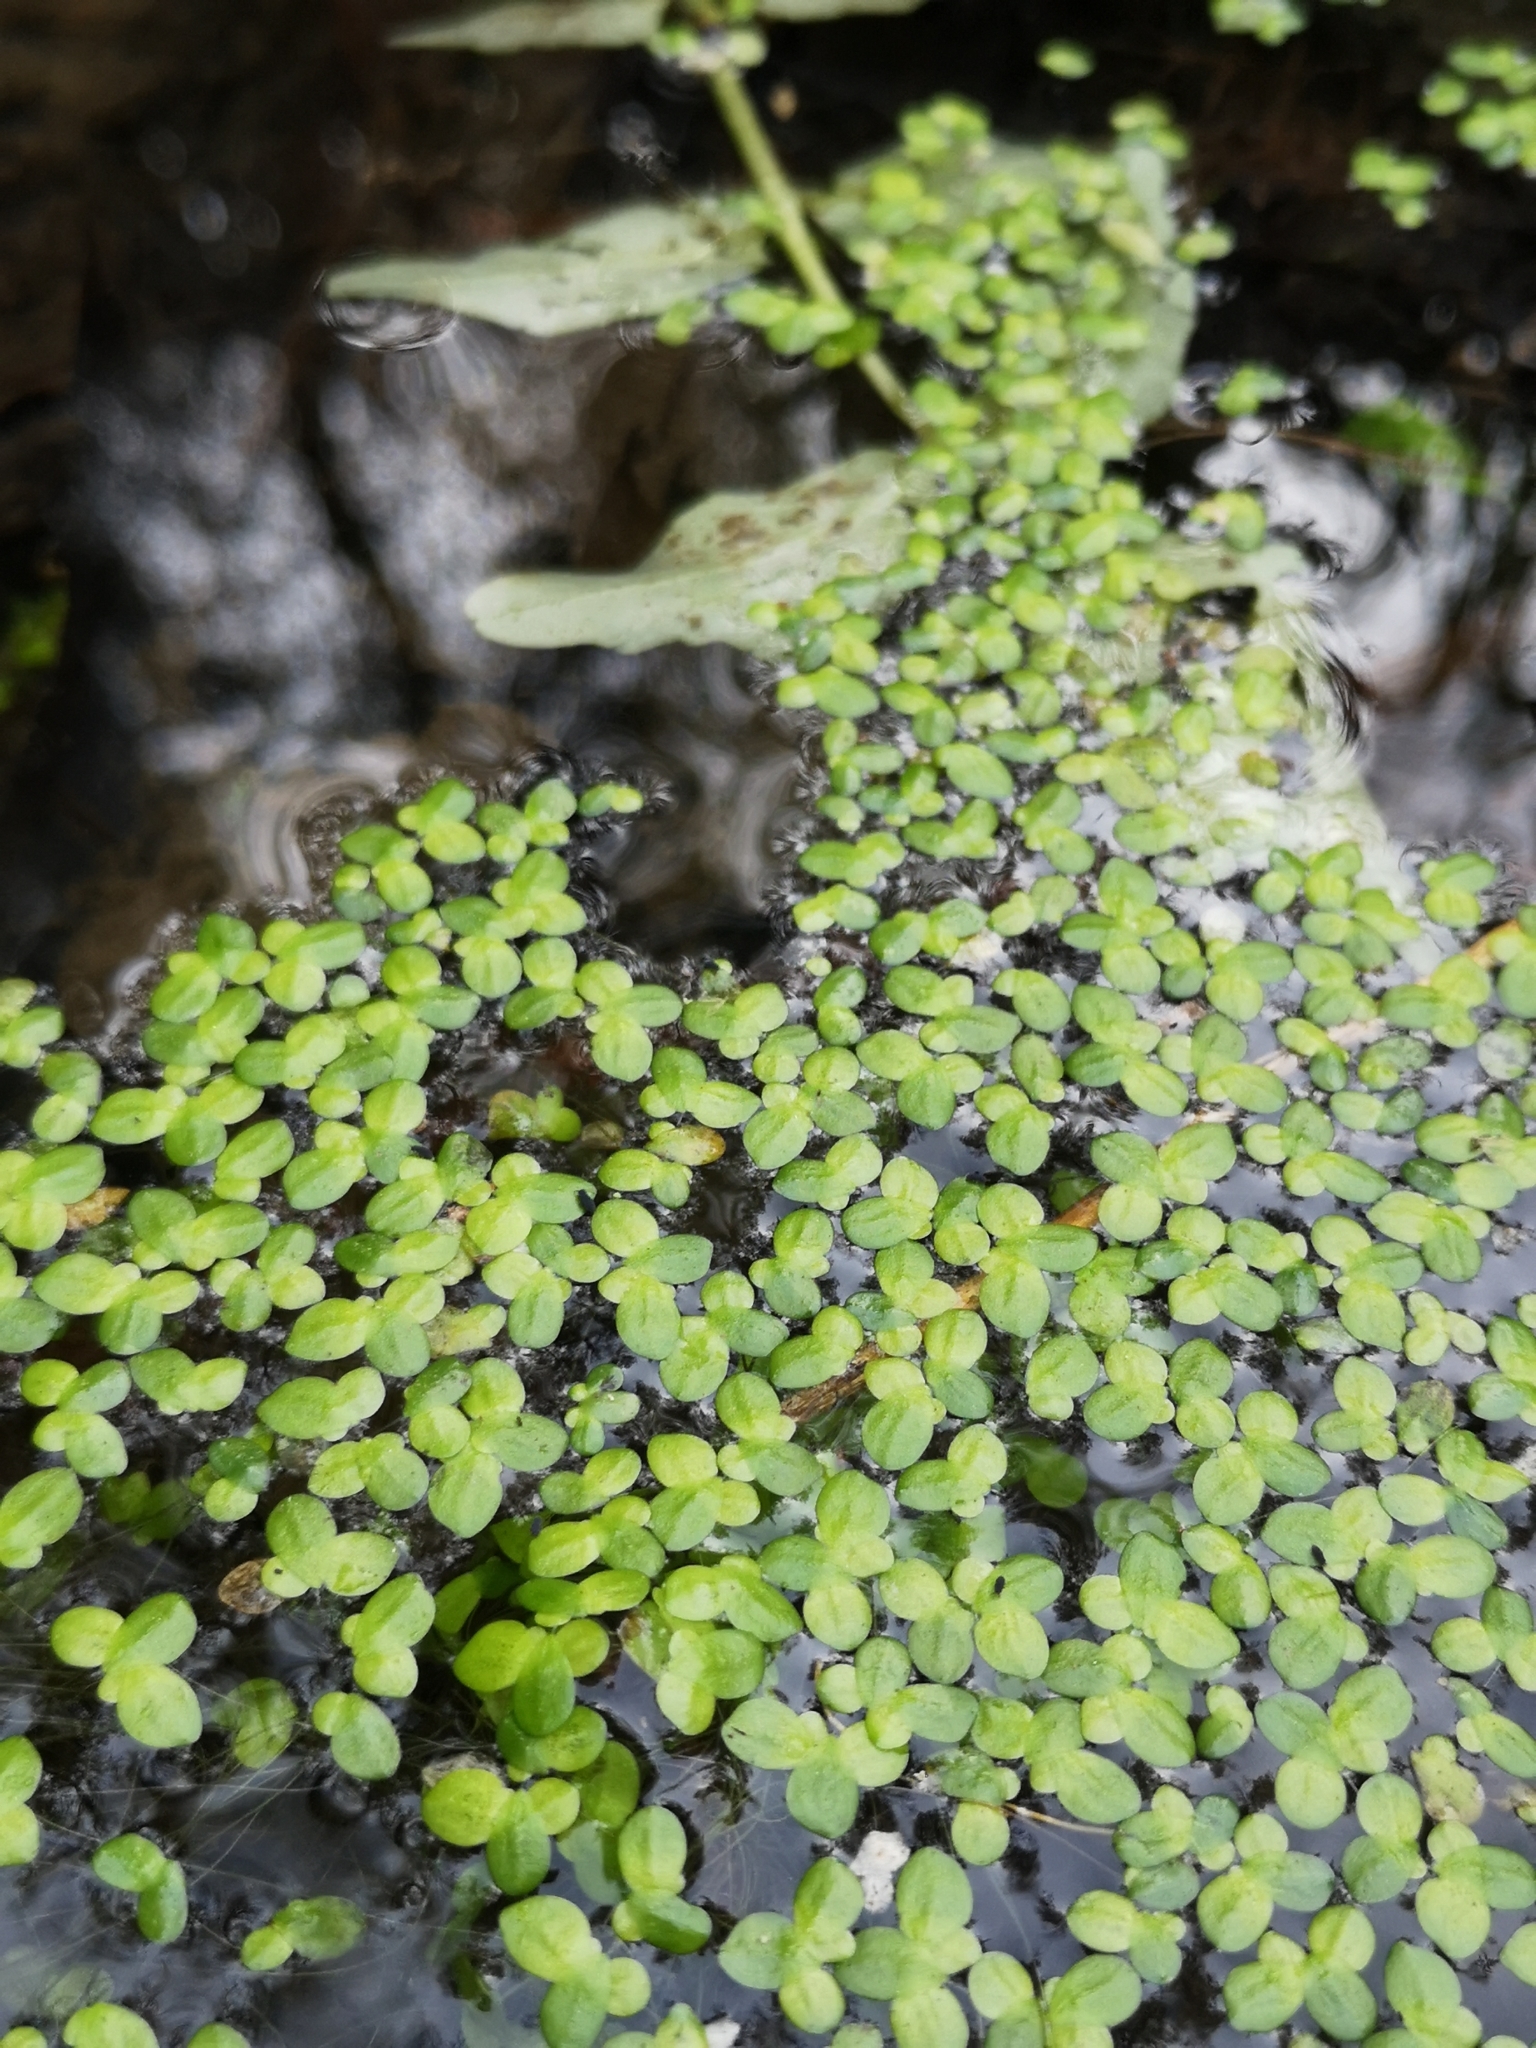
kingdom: Plantae
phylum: Tracheophyta
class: Liliopsida
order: Alismatales
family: Araceae
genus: Lemna
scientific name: Lemna minor
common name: Common duckweed
